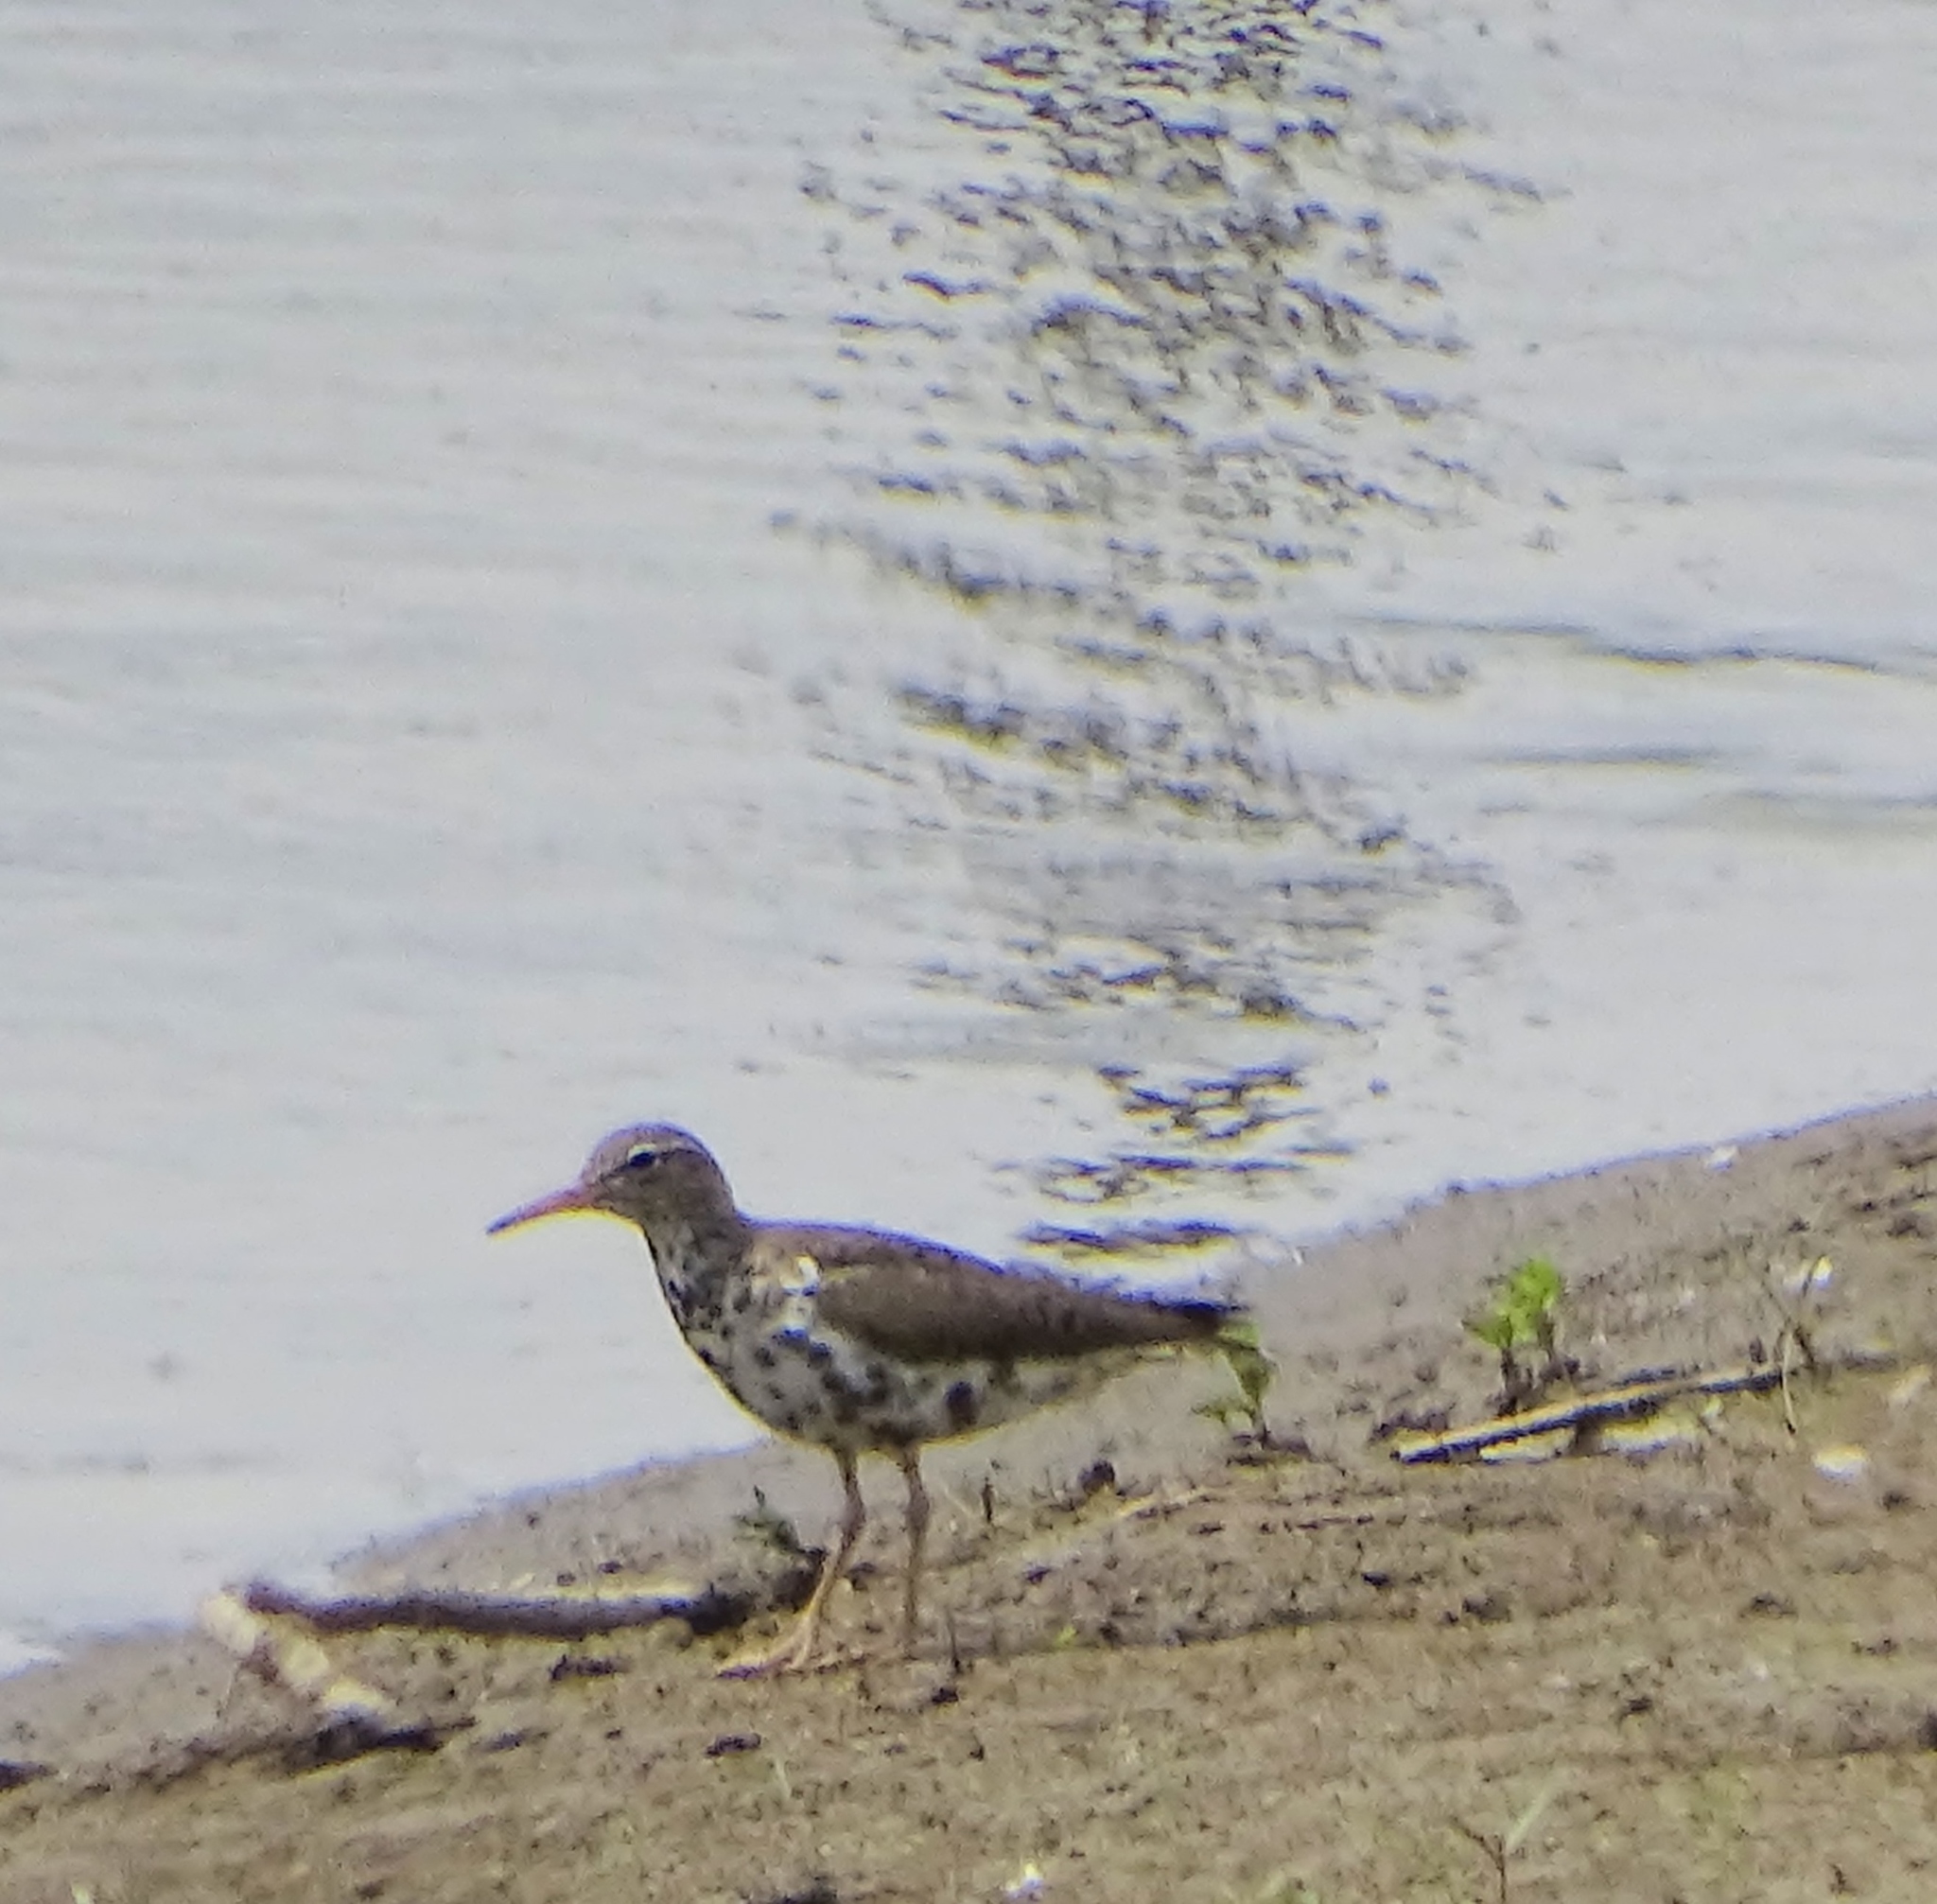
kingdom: Animalia
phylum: Chordata
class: Aves
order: Charadriiformes
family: Scolopacidae
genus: Actitis
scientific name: Actitis macularius
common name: Spotted sandpiper
